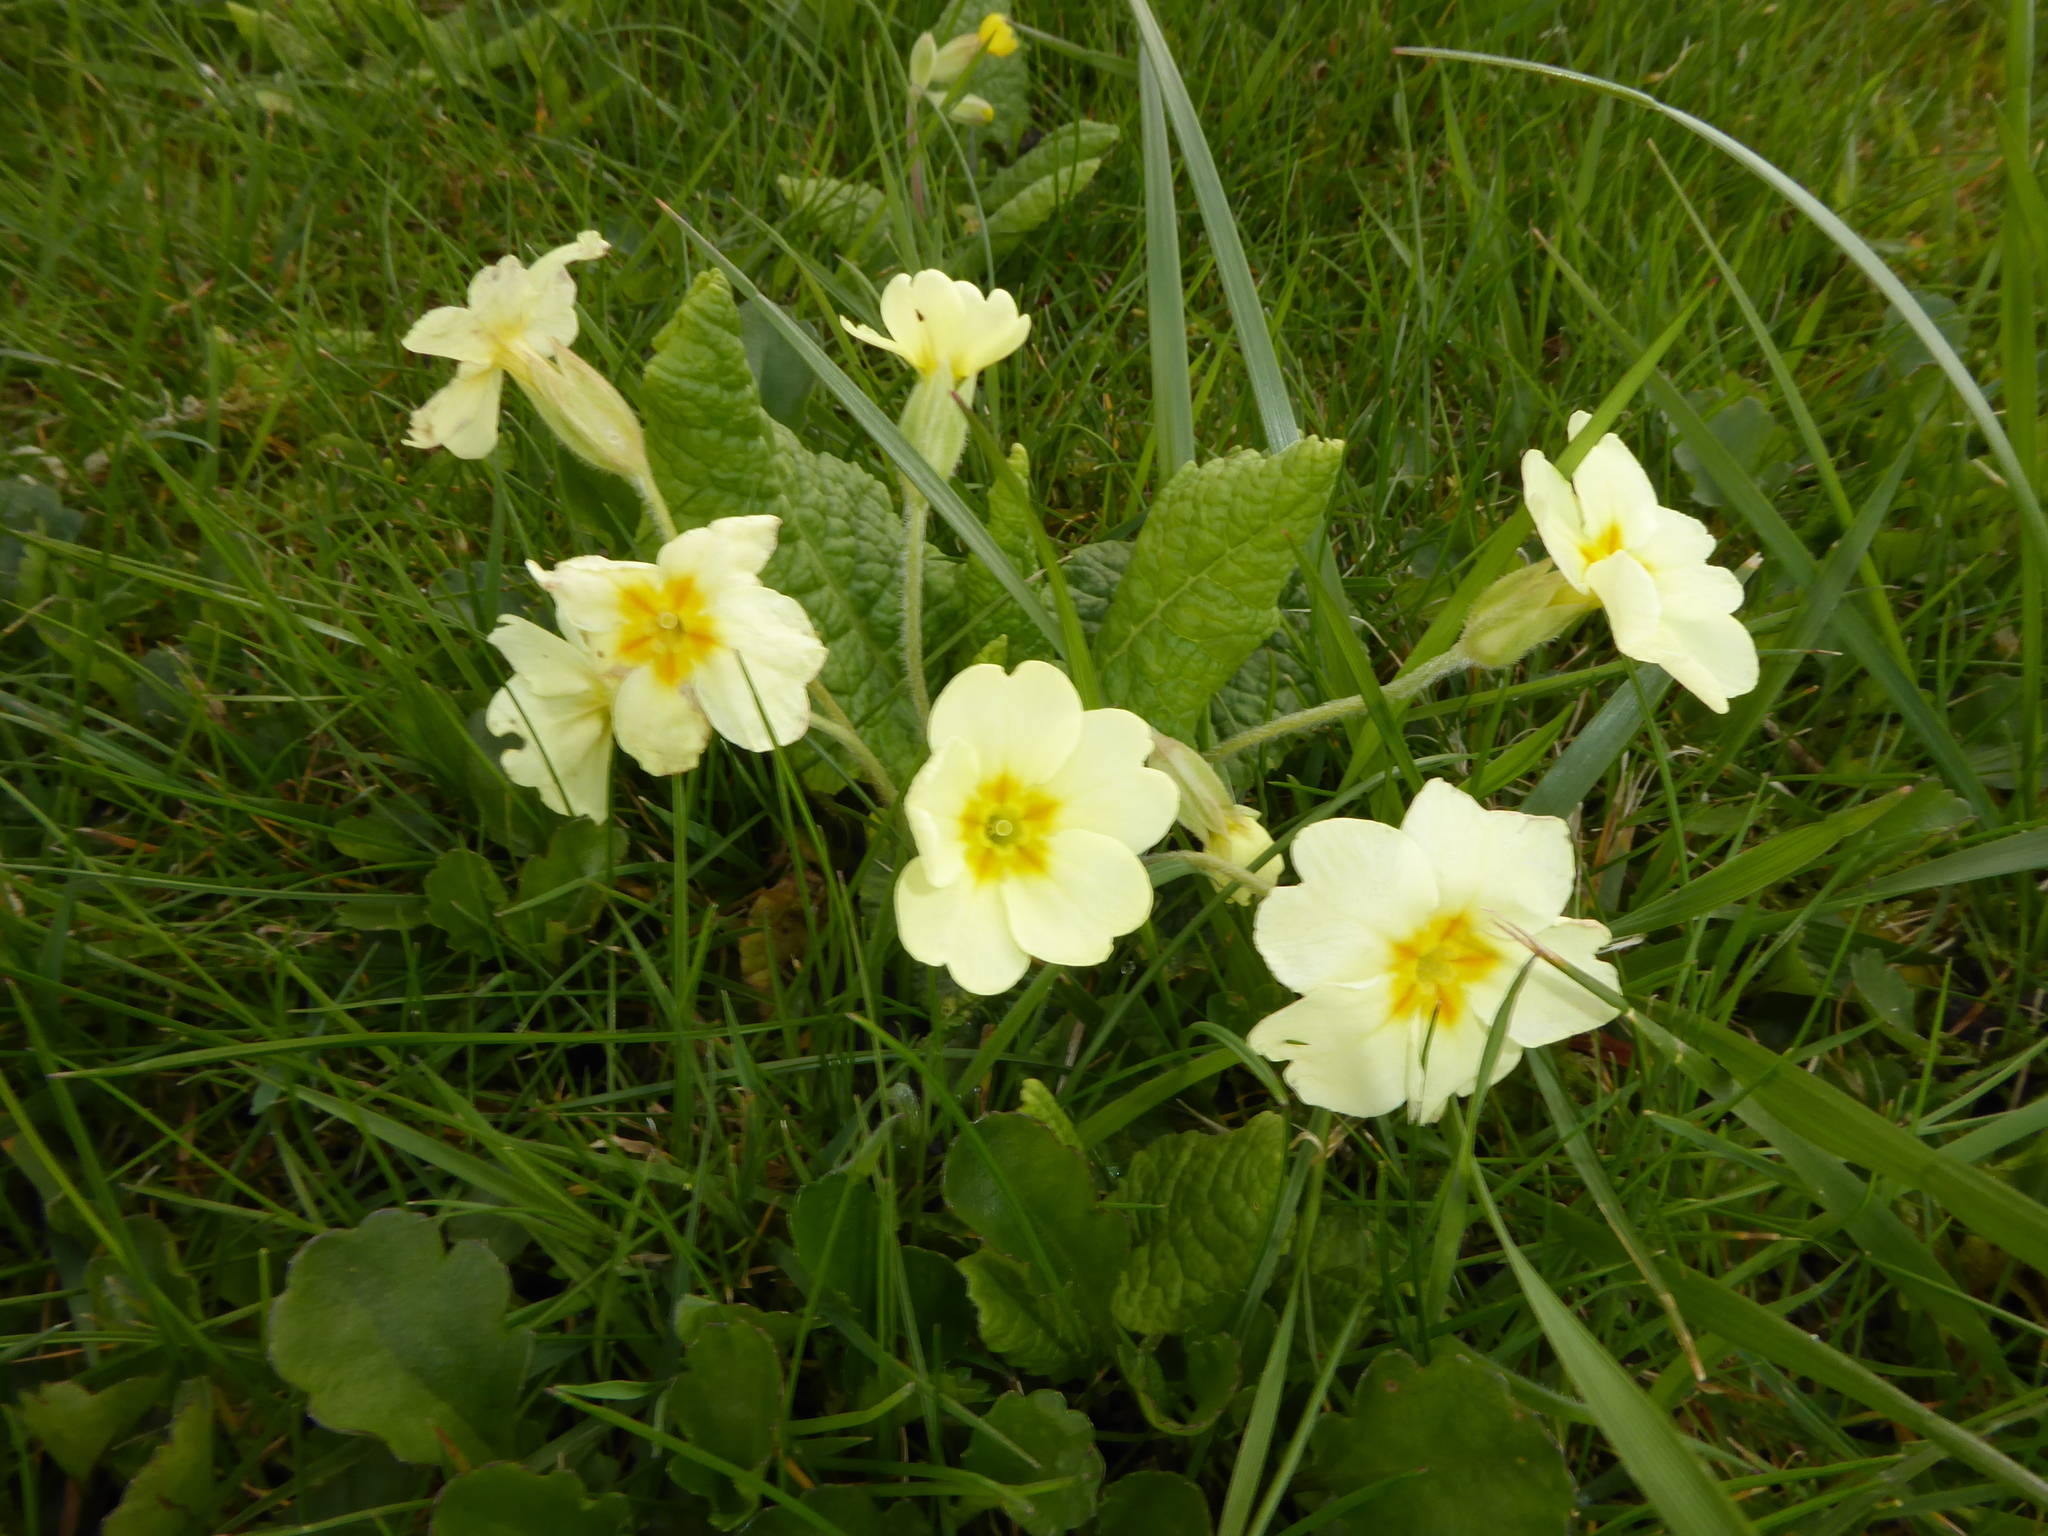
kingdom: Plantae
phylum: Tracheophyta
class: Magnoliopsida
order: Ericales
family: Primulaceae
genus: Primula
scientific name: Primula vulgaris
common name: Primrose
